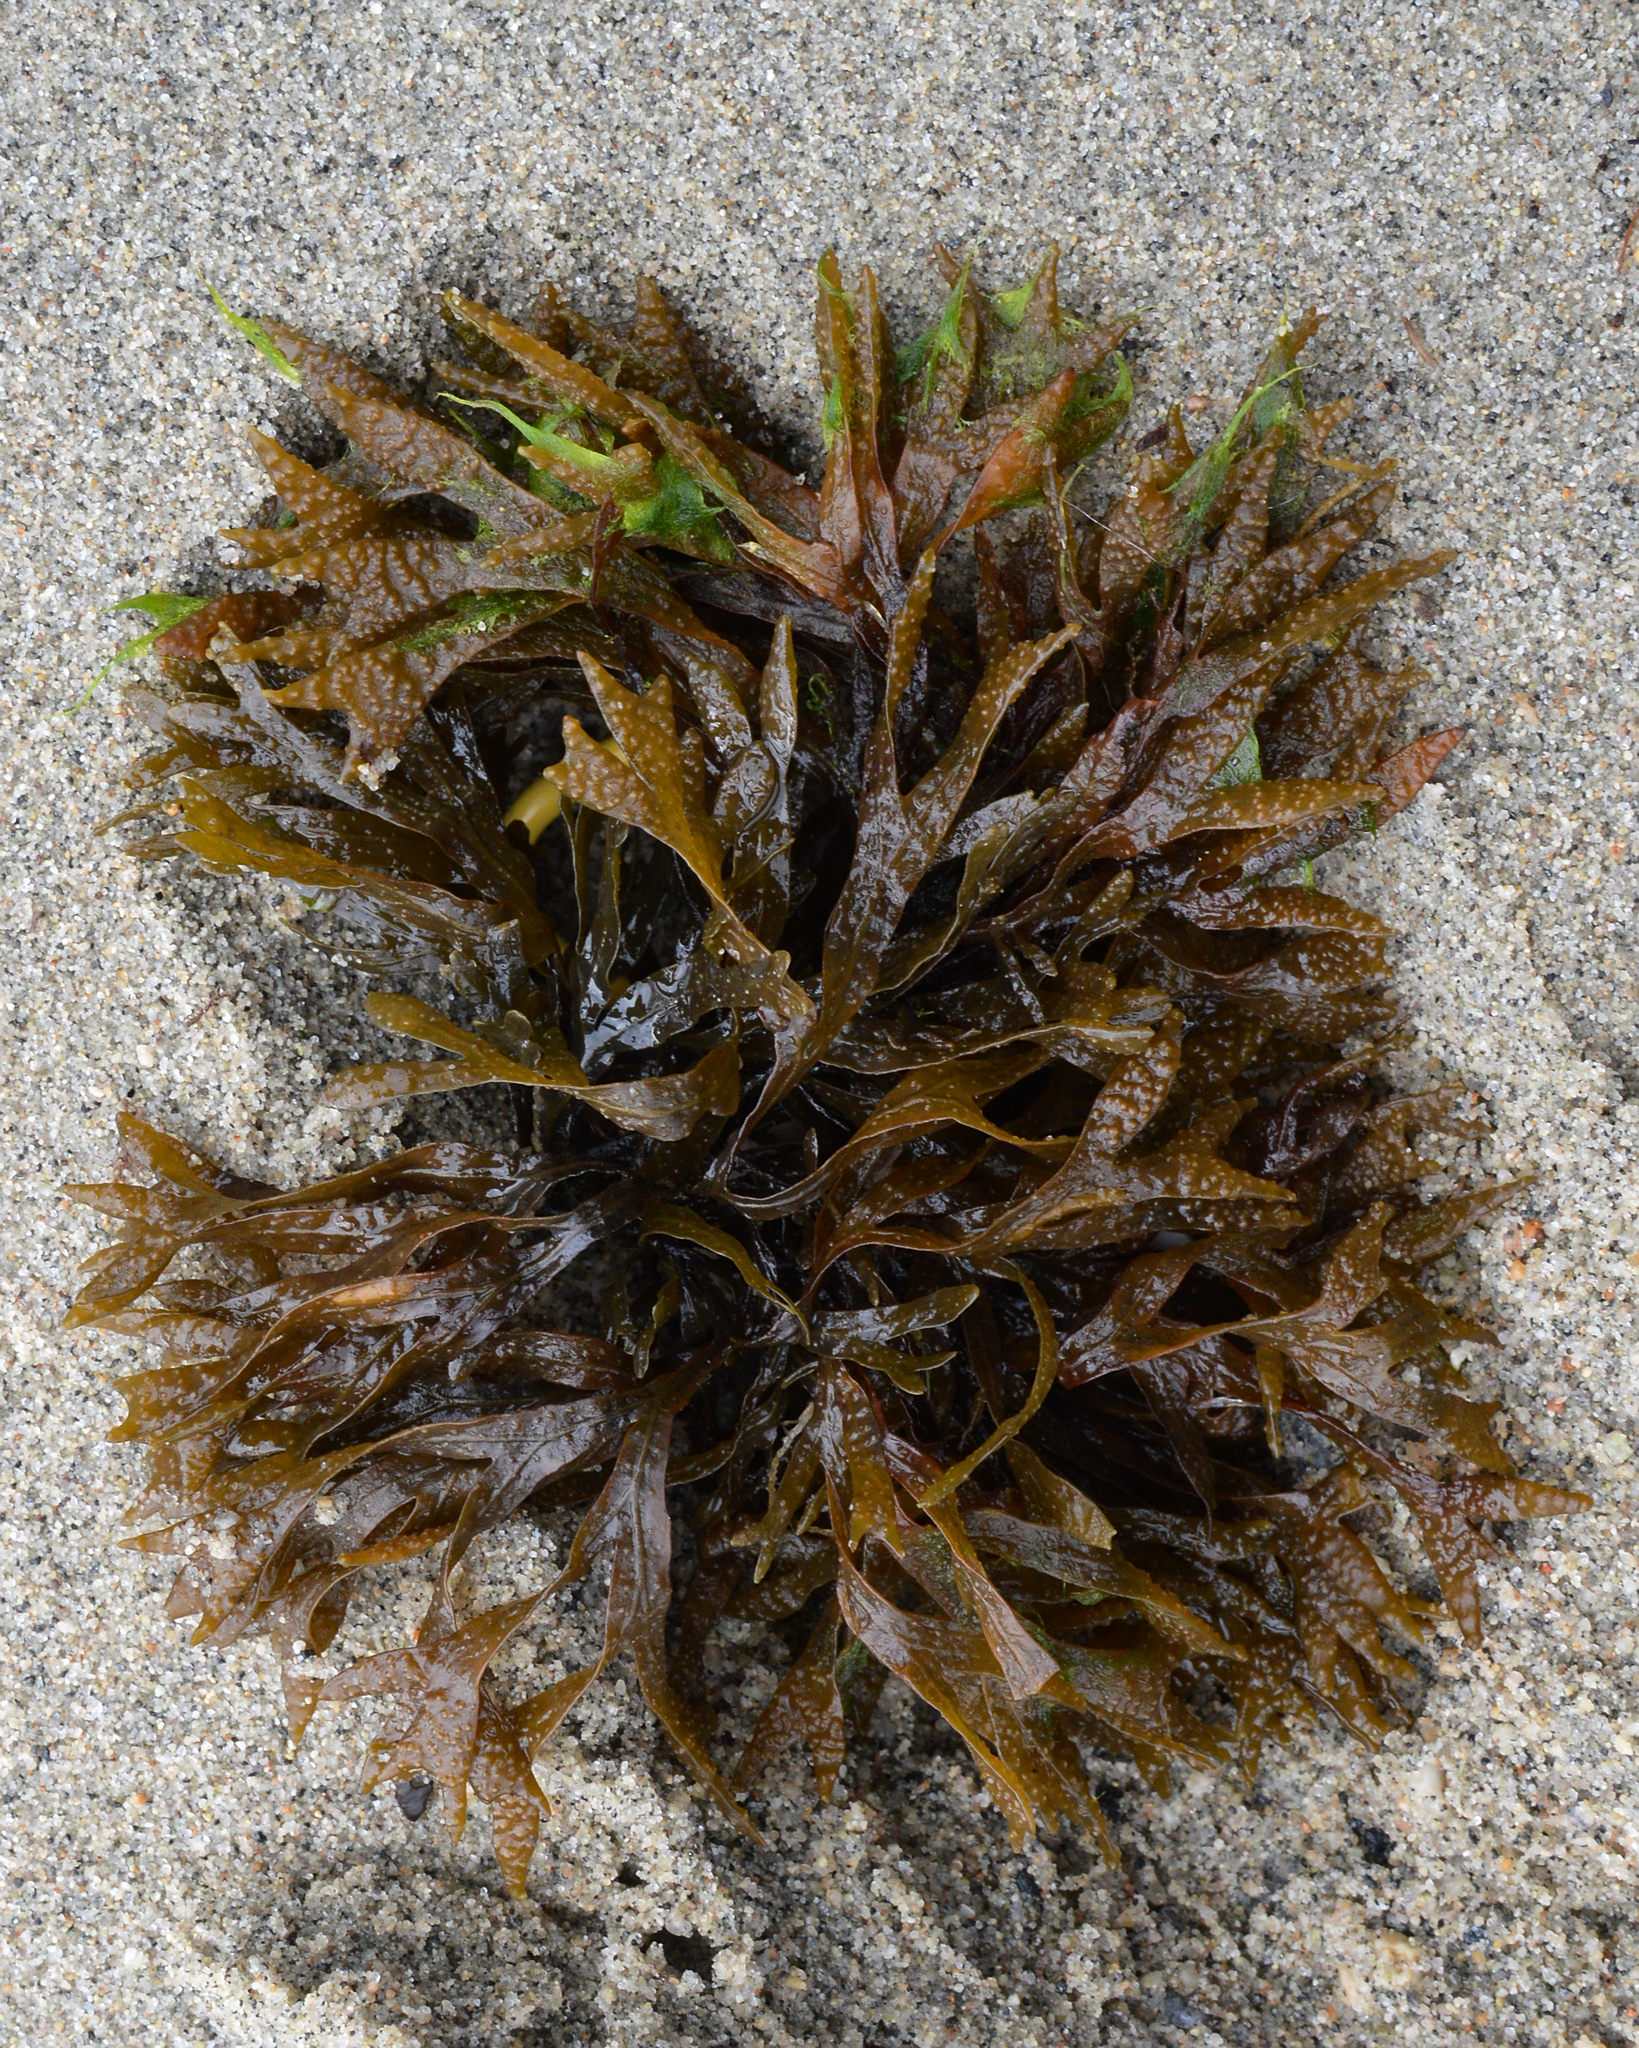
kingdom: Chromista
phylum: Ochrophyta
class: Phaeophyceae
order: Fucales
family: Fucaceae
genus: Fucus
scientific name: Fucus ceranoides
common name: Horned wrack
